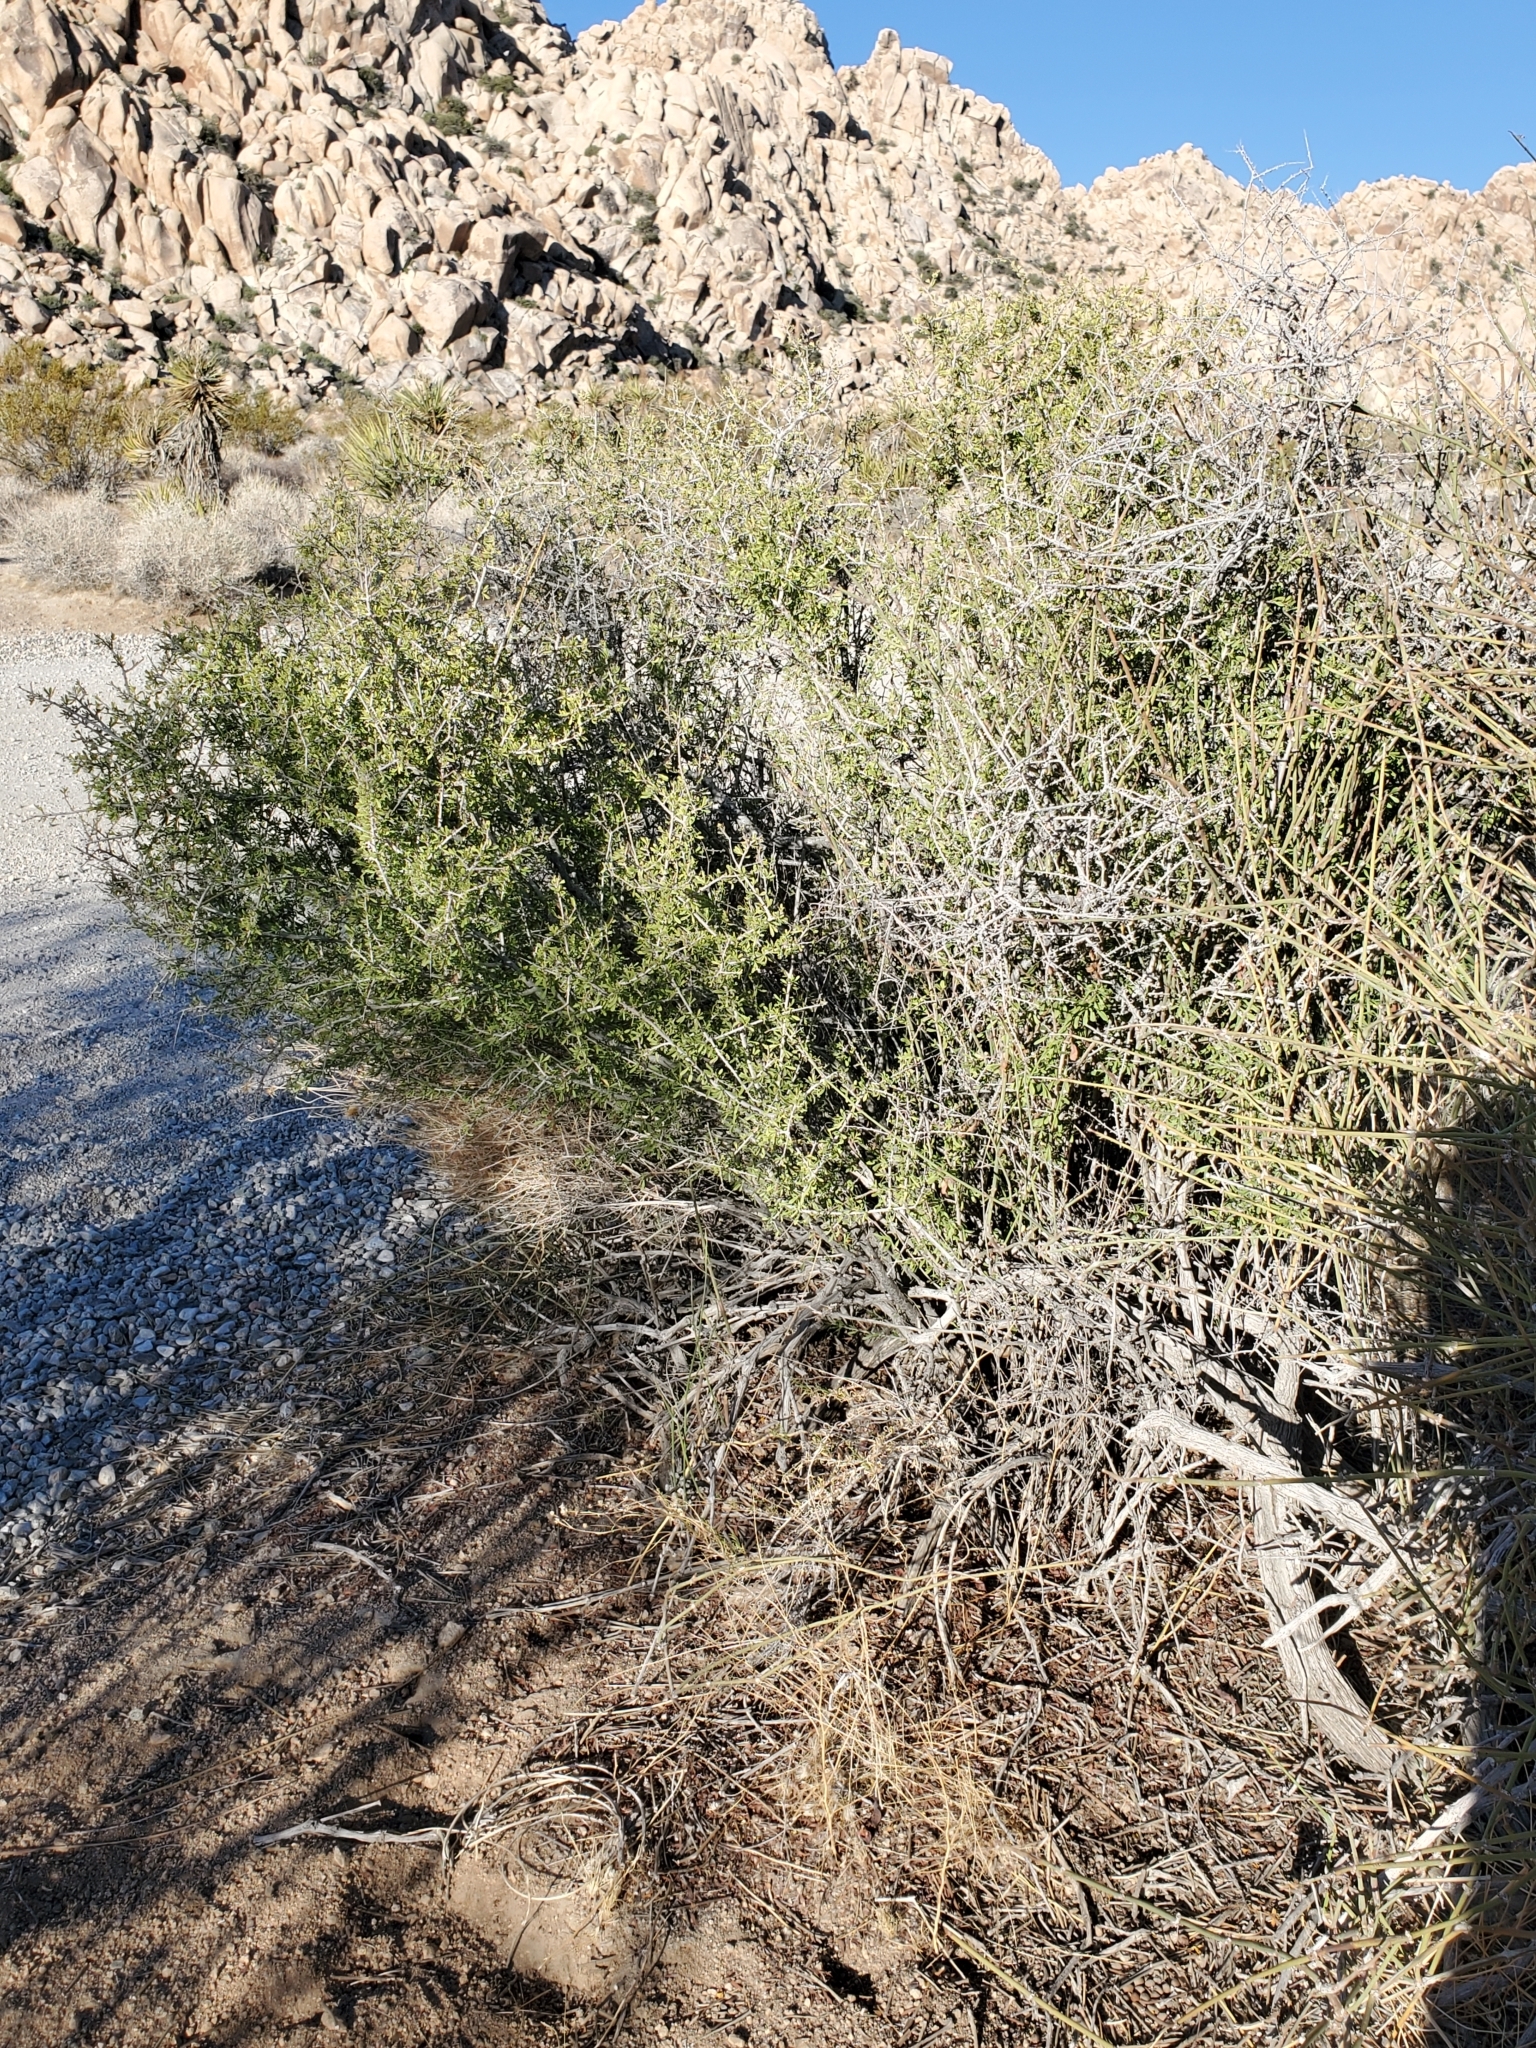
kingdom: Plantae
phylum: Tracheophyta
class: Magnoliopsida
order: Rosales
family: Rosaceae
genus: Prunus
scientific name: Prunus fasciculata
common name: Desert almond
